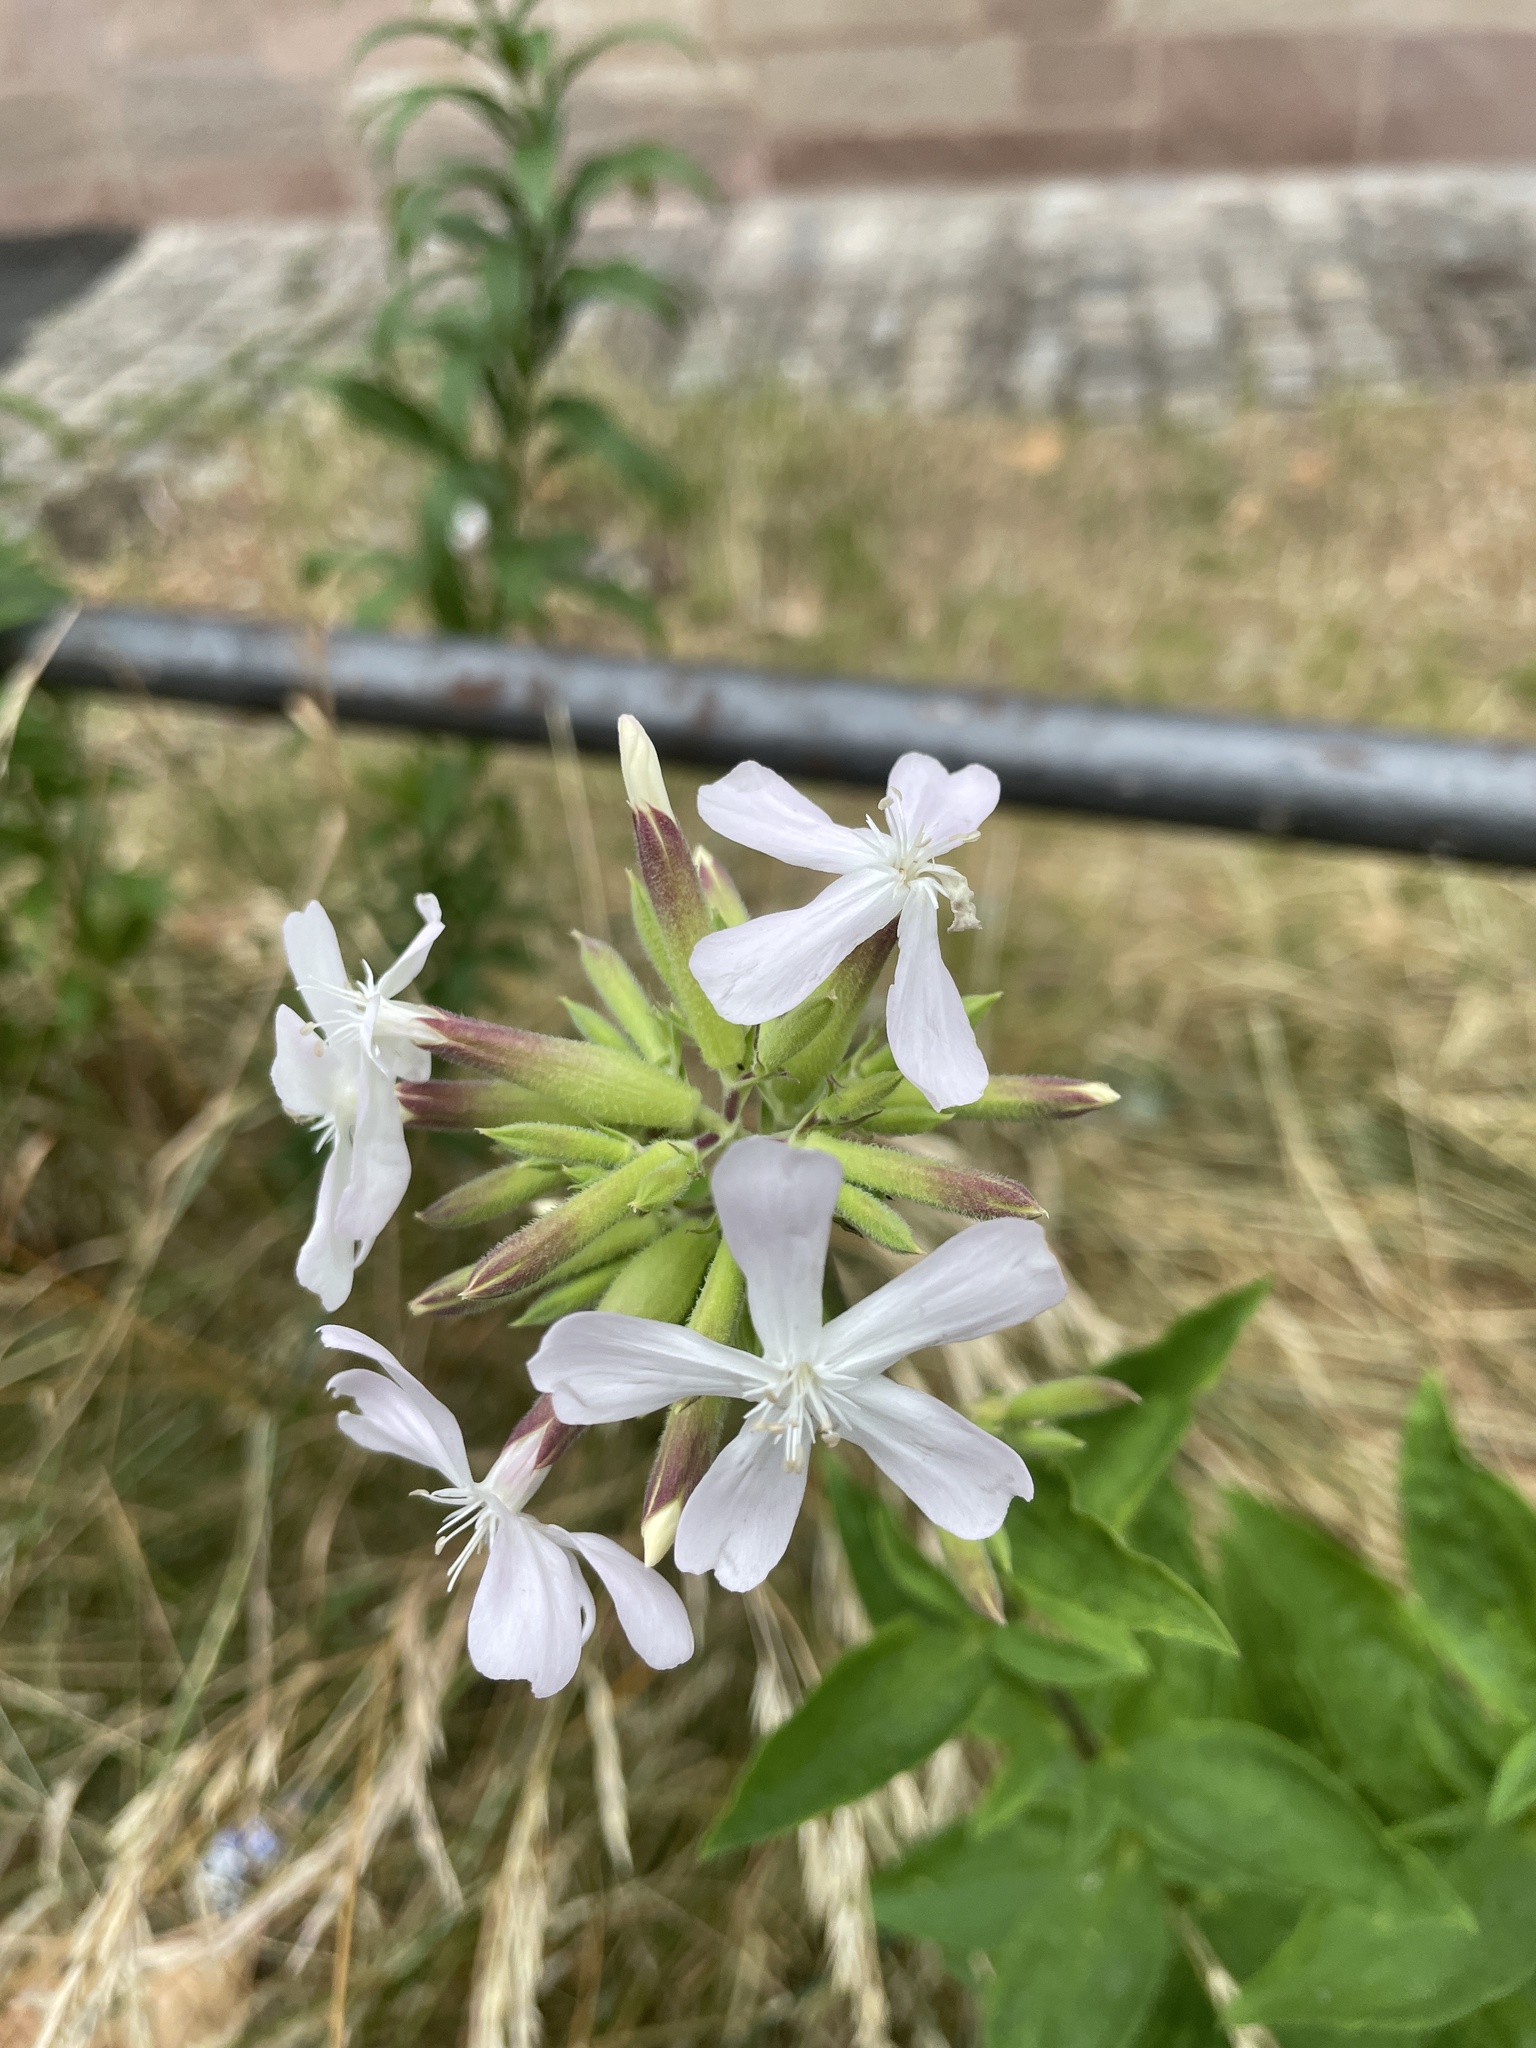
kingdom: Plantae
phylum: Tracheophyta
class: Magnoliopsida
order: Caryophyllales
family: Caryophyllaceae
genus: Saponaria
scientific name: Saponaria officinalis
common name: Soapwort
